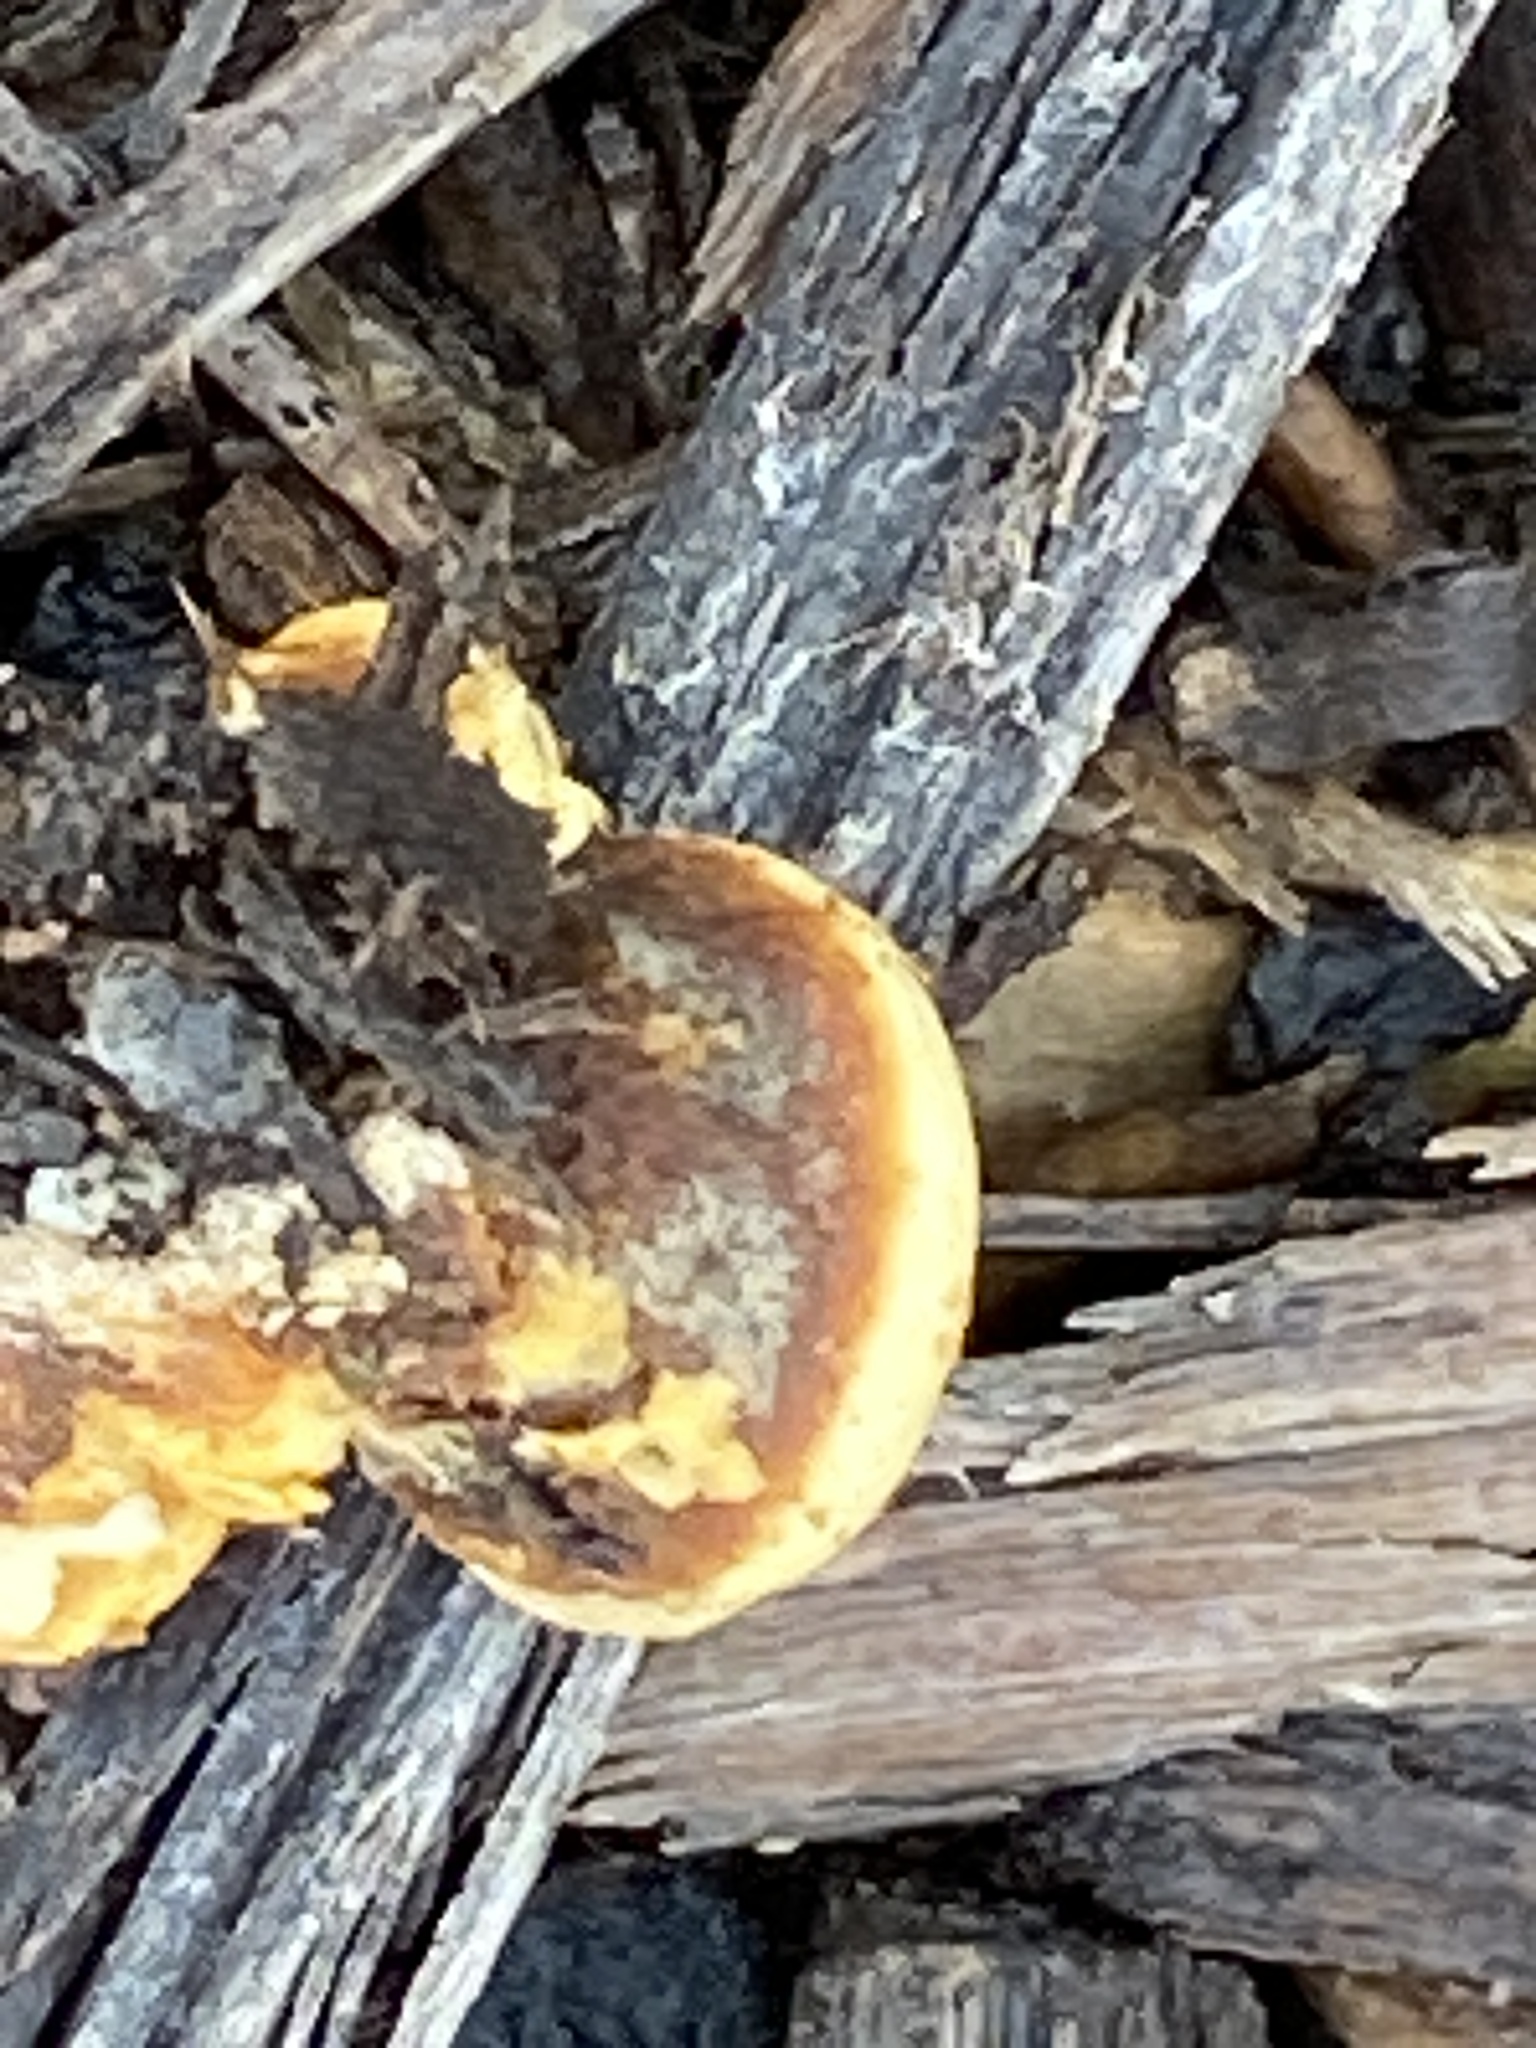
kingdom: Fungi
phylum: Basidiomycota
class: Agaricomycetes
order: Agaricales
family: Nidulariaceae
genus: Crucibulum
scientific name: Crucibulum laeve
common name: Common bird's nest
